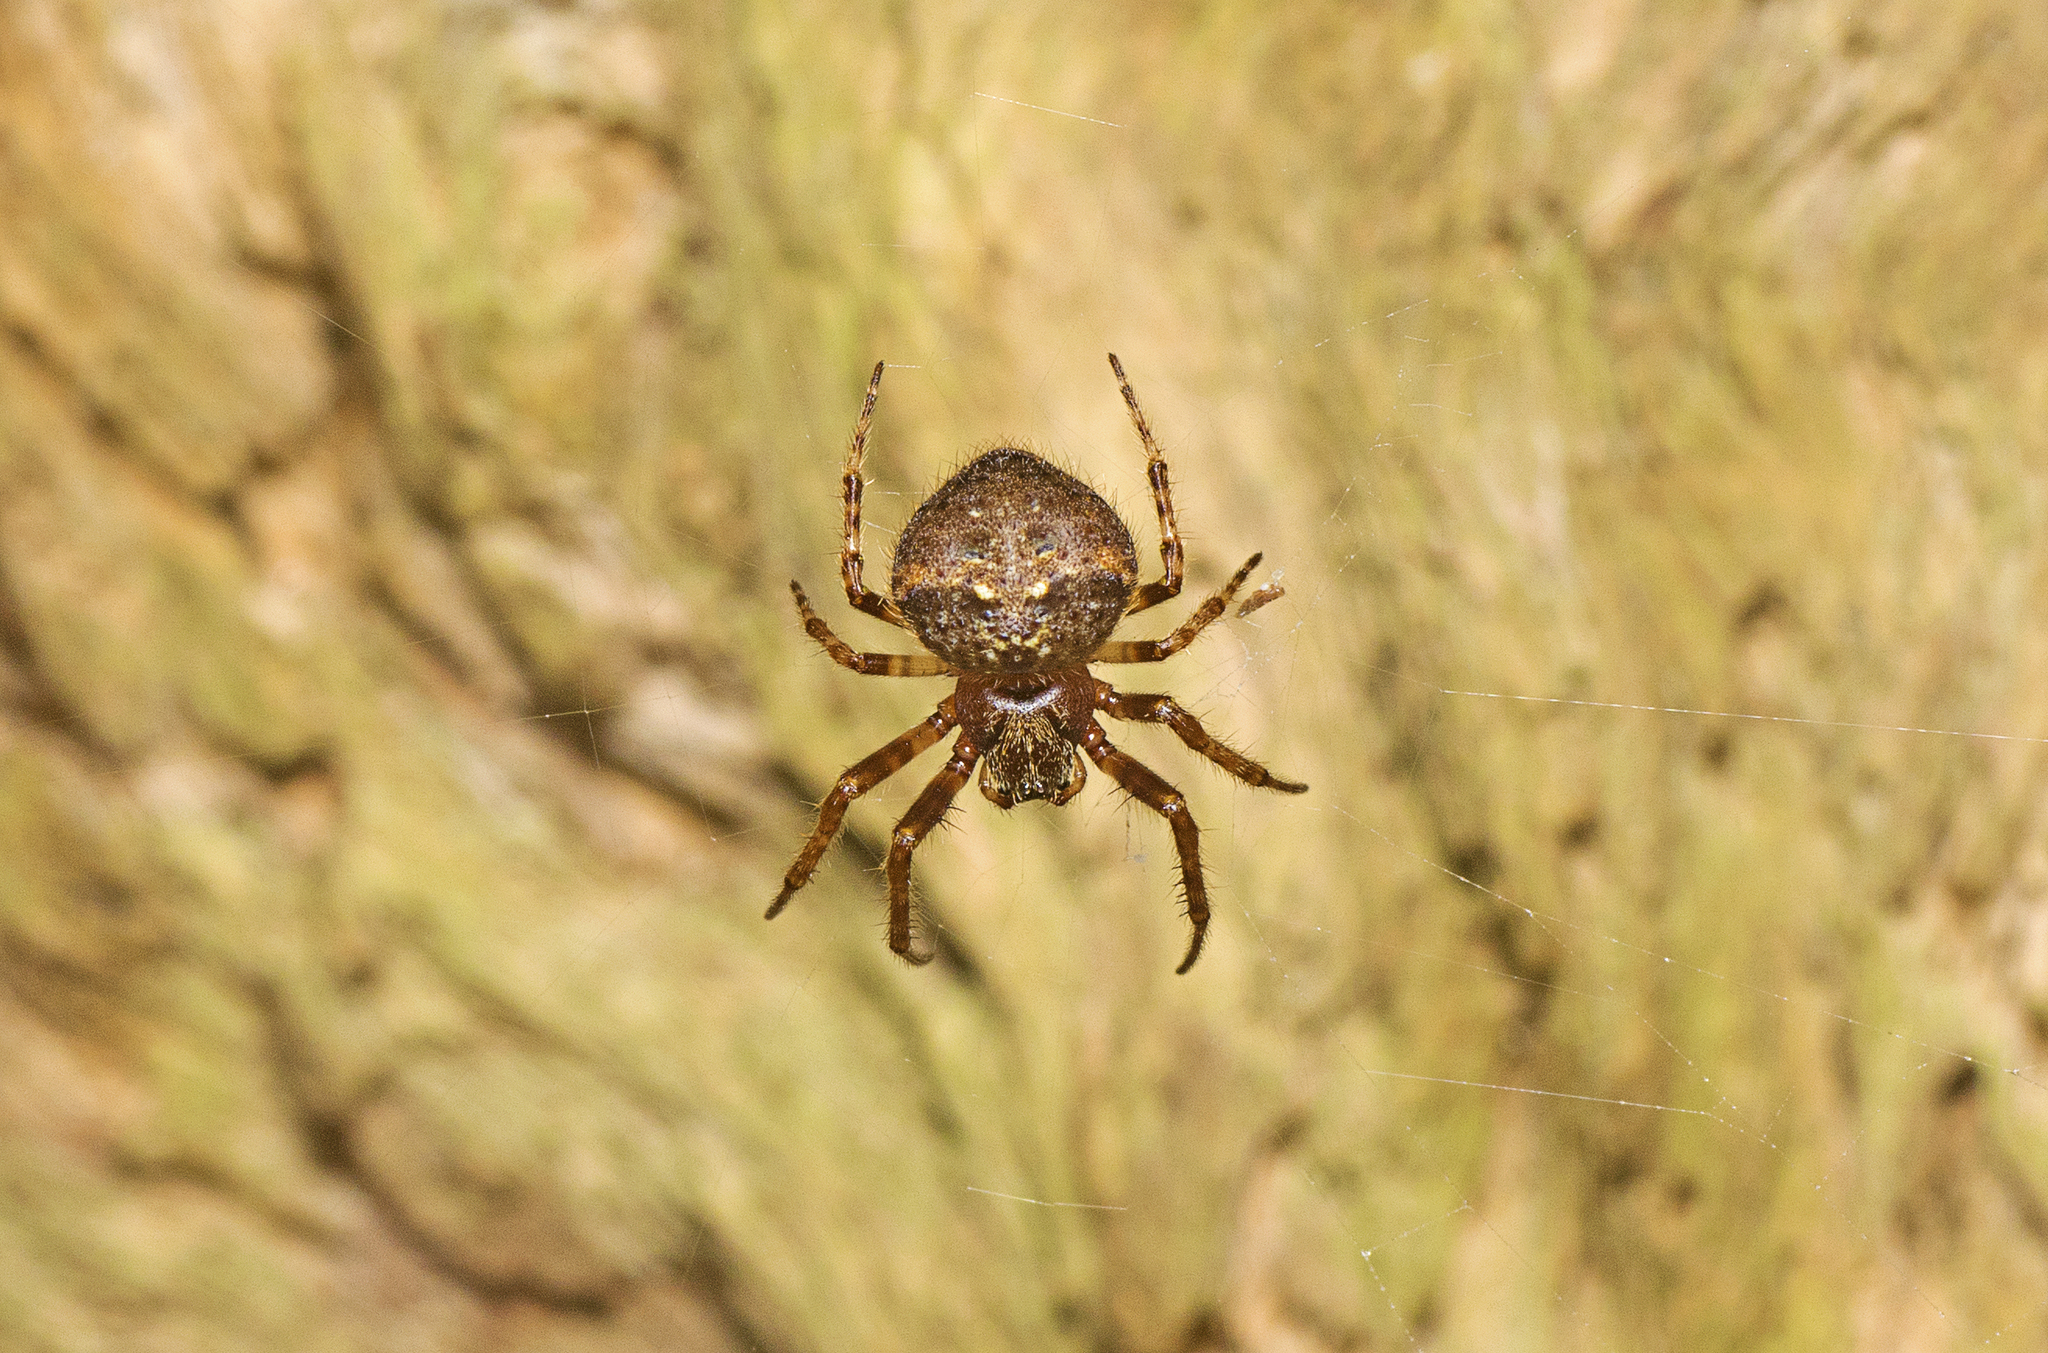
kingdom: Animalia
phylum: Arthropoda
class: Arachnida
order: Araneae
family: Araneidae
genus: Telaprocera
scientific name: Telaprocera maudae
